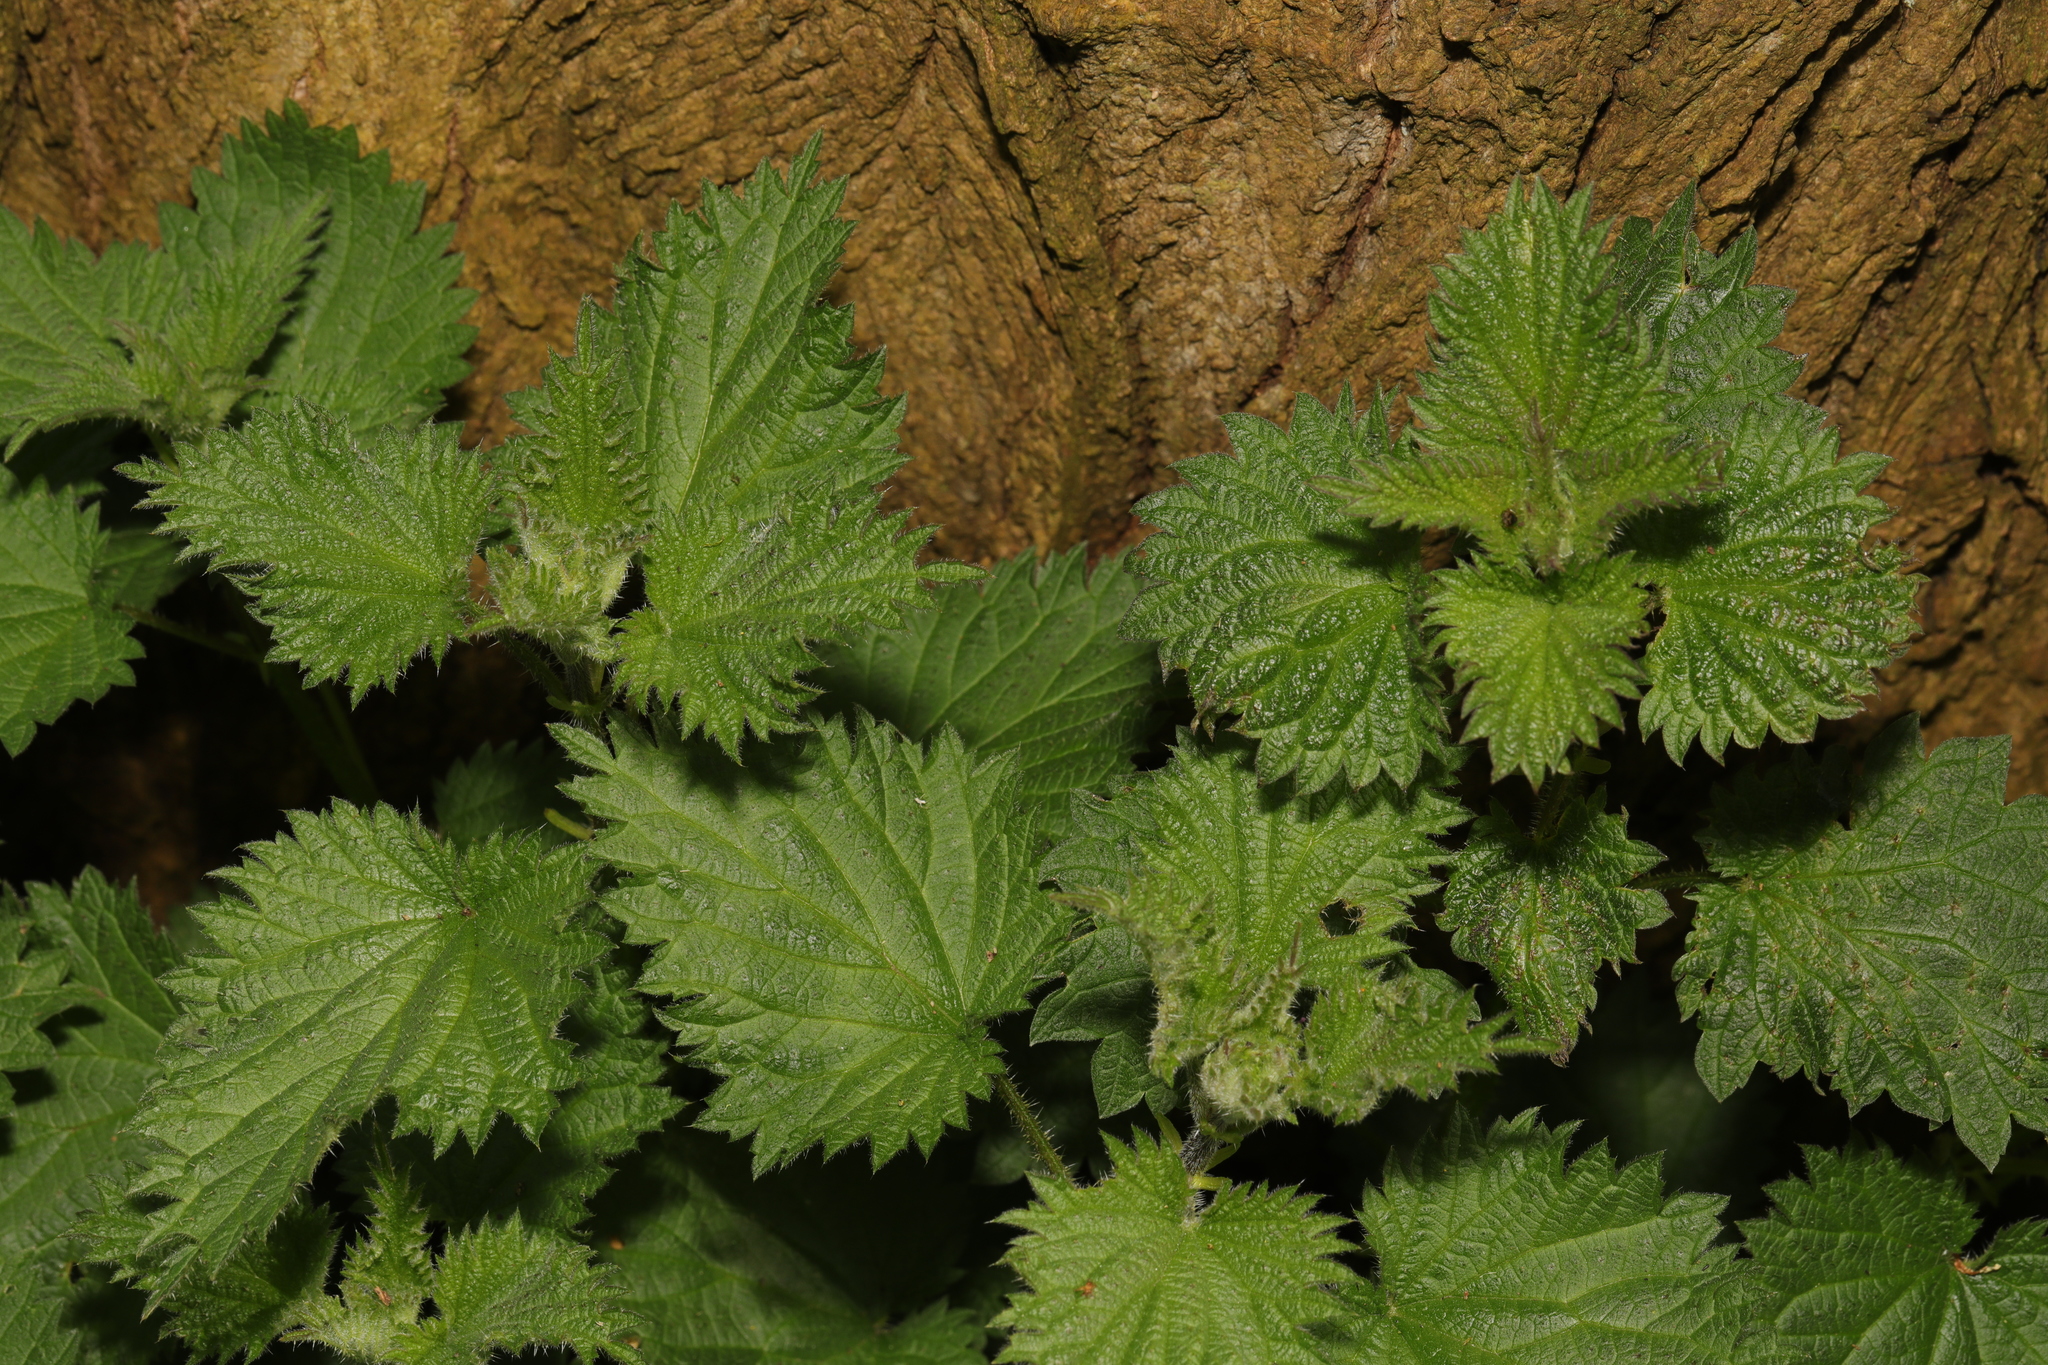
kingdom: Plantae
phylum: Tracheophyta
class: Magnoliopsida
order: Rosales
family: Urticaceae
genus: Urtica
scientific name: Urtica dioica
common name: Common nettle
